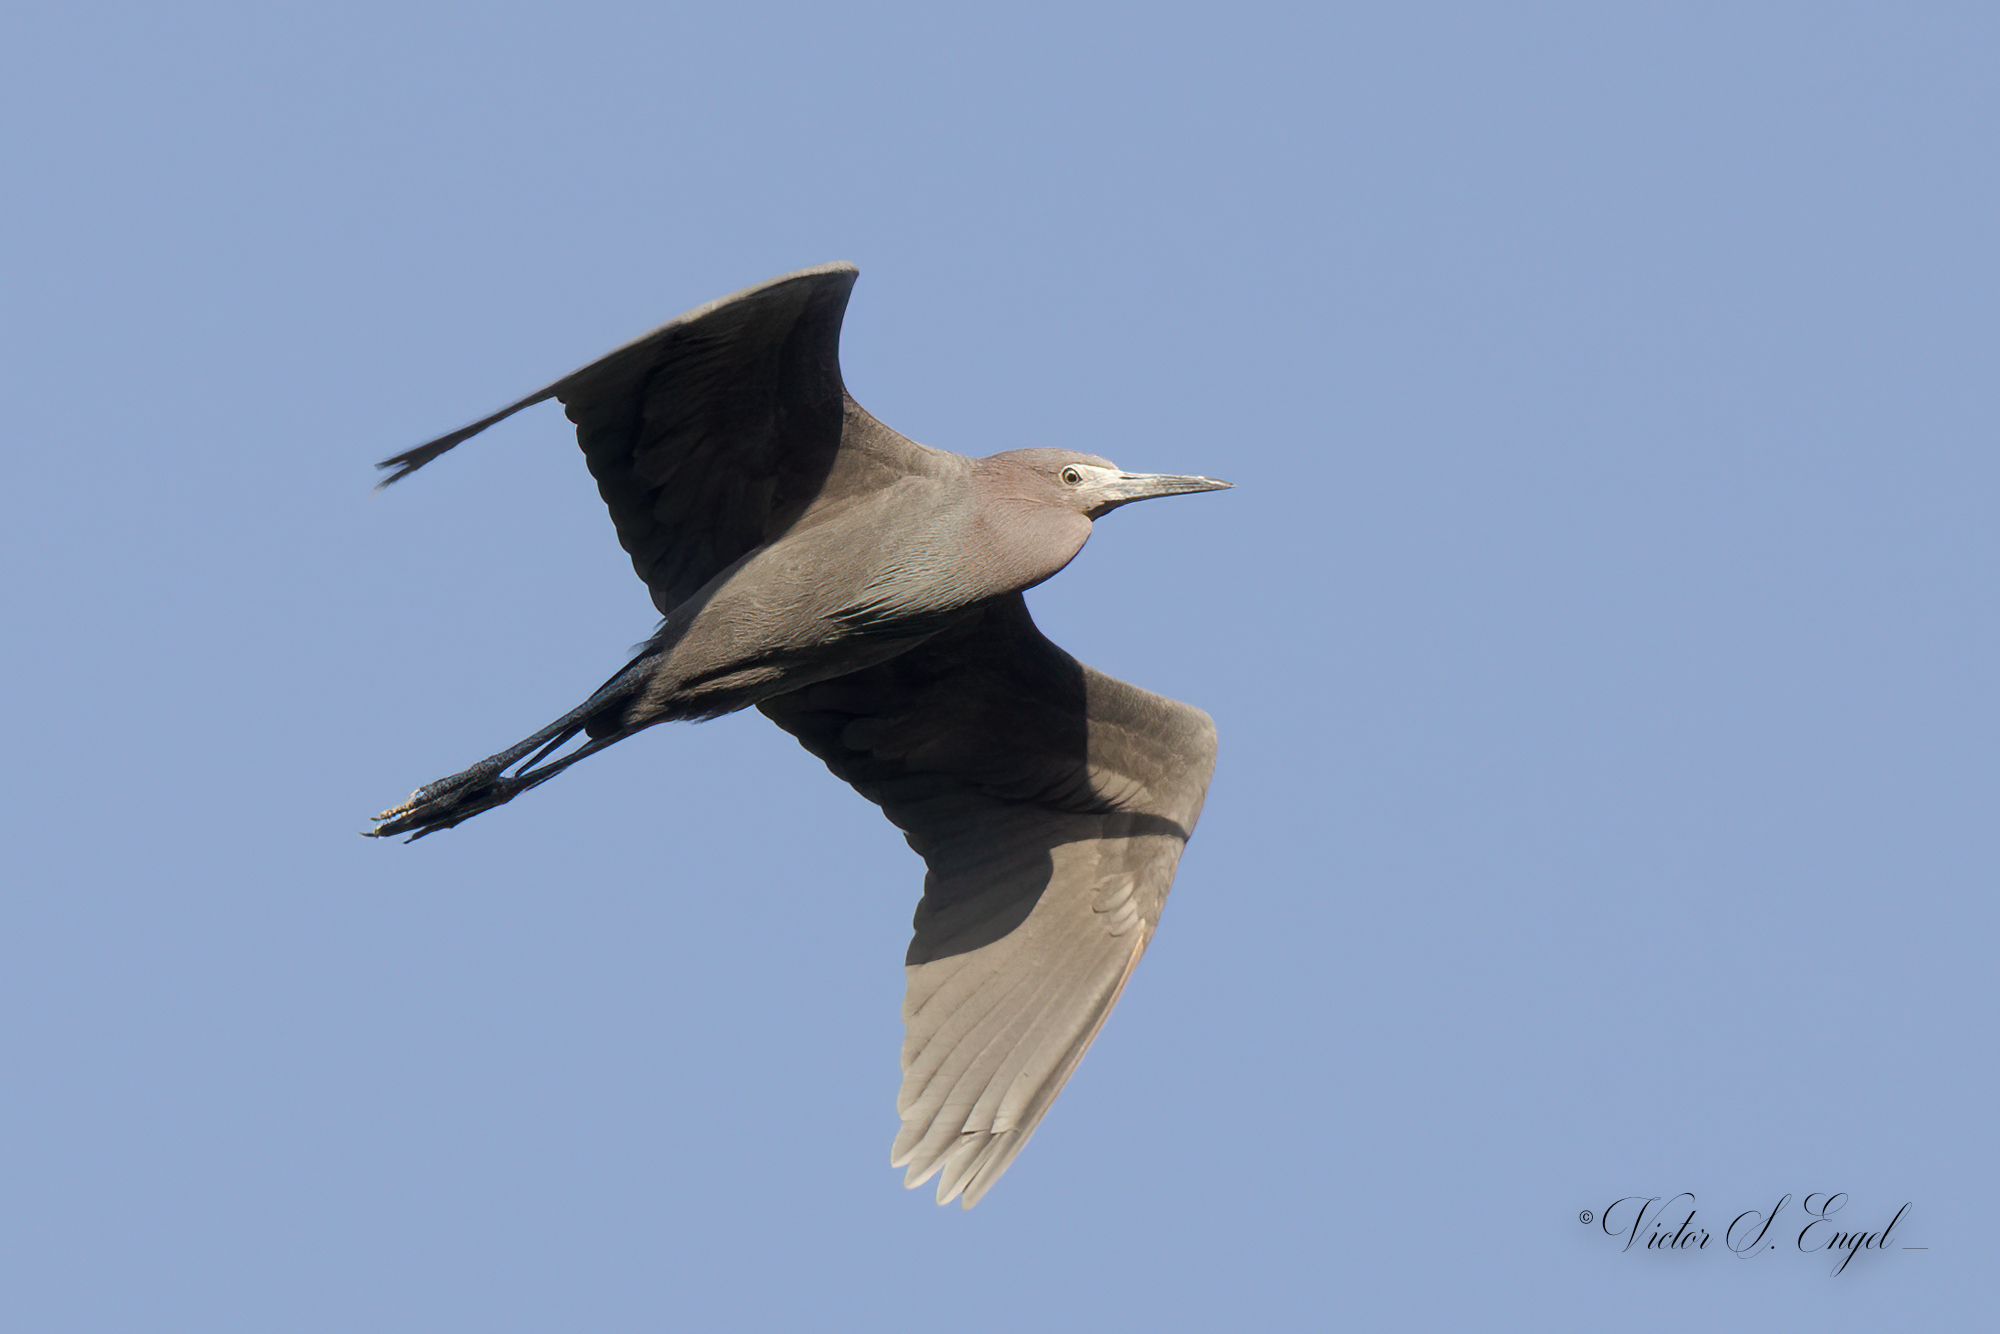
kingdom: Animalia
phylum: Chordata
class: Aves
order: Pelecaniformes
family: Ardeidae
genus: Egretta
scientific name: Egretta caerulea
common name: Little blue heron
